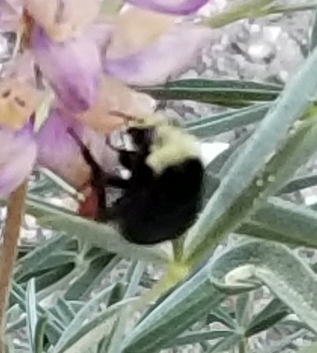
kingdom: Animalia
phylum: Arthropoda
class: Insecta
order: Hymenoptera
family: Apidae
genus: Bombus
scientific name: Bombus vosnesenskii
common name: Vosnesensky bumble bee
